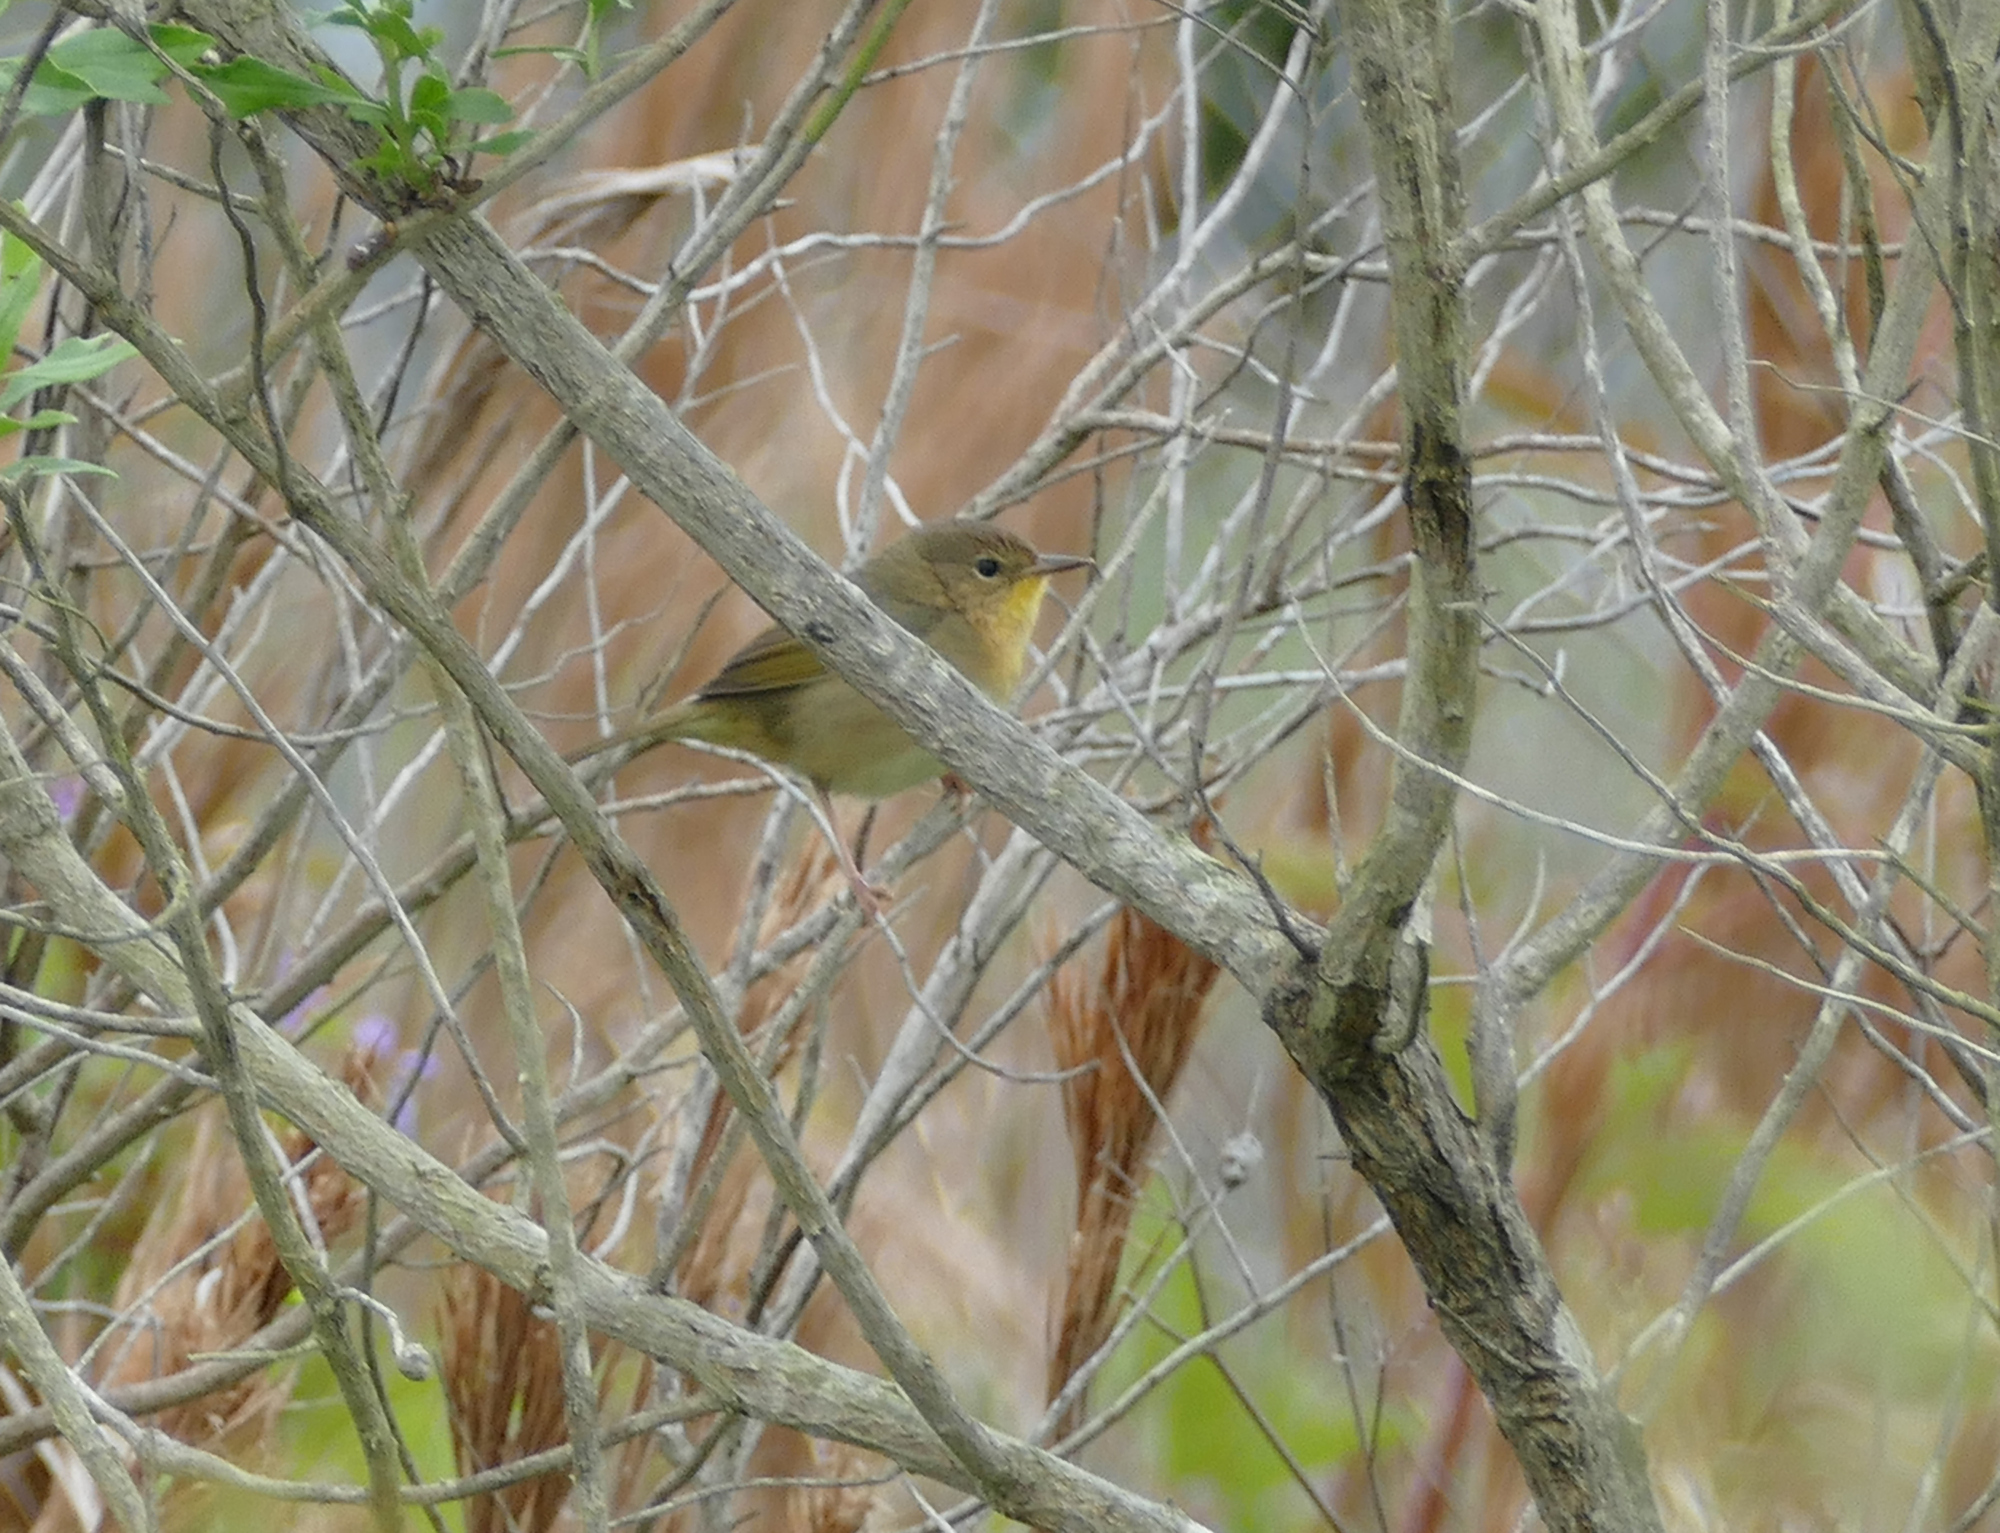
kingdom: Animalia
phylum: Chordata
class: Aves
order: Passeriformes
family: Parulidae
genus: Geothlypis
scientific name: Geothlypis trichas
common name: Common yellowthroat
